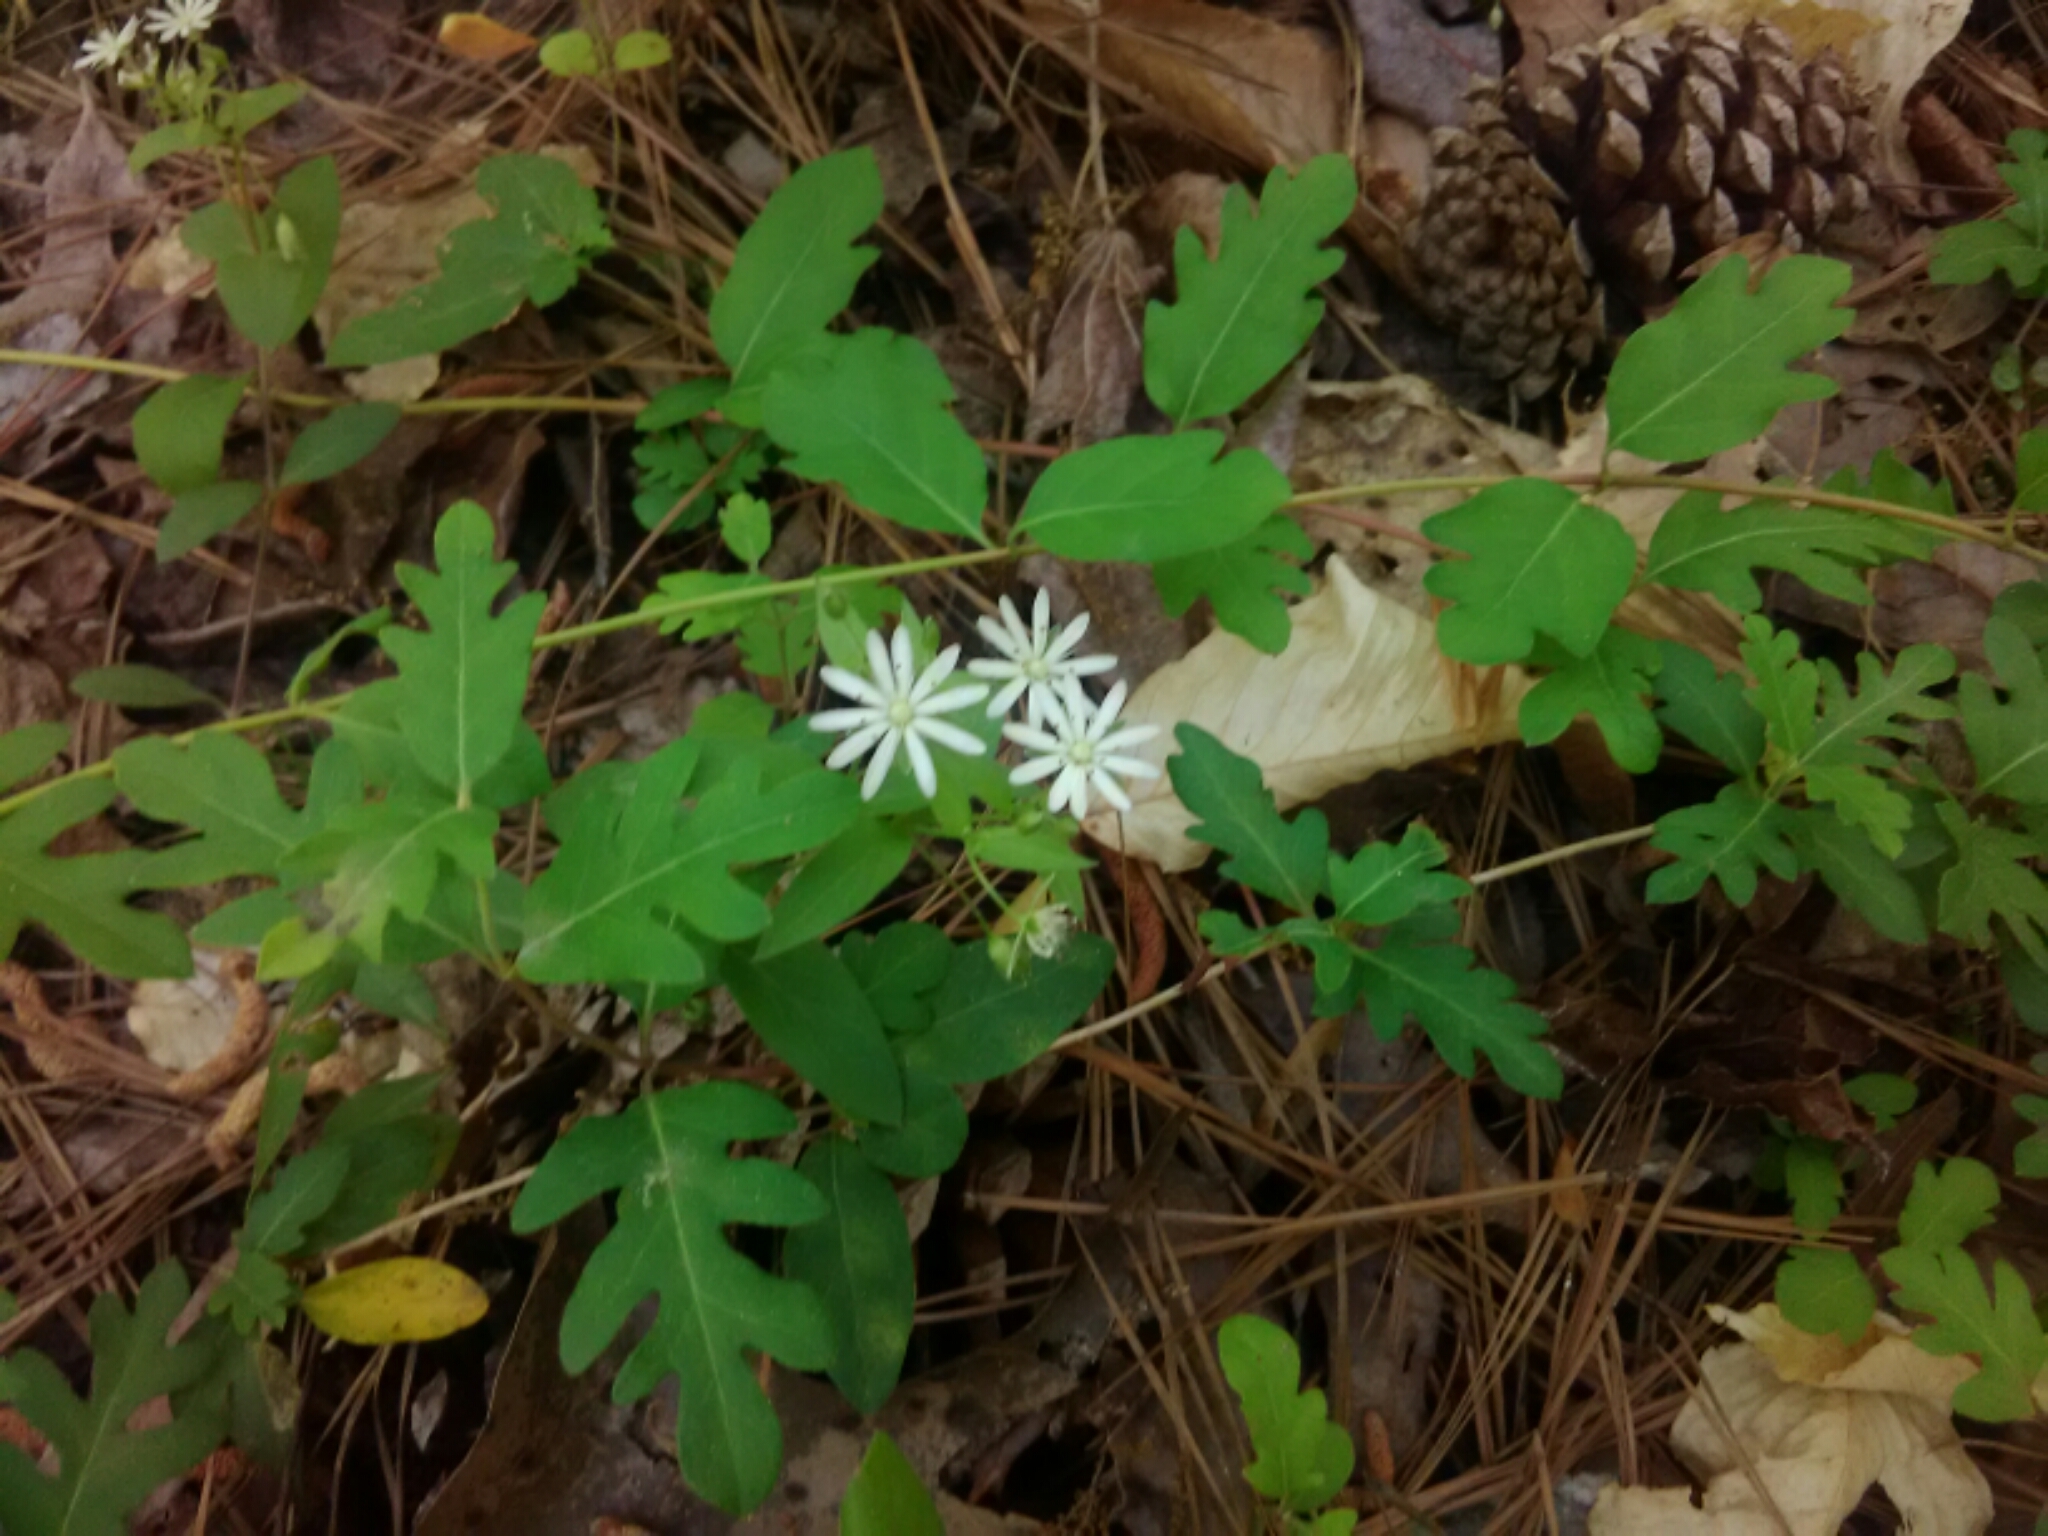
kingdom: Plantae
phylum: Tracheophyta
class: Magnoliopsida
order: Caryophyllales
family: Caryophyllaceae
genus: Stellaria
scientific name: Stellaria pubera
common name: Star chickweed
